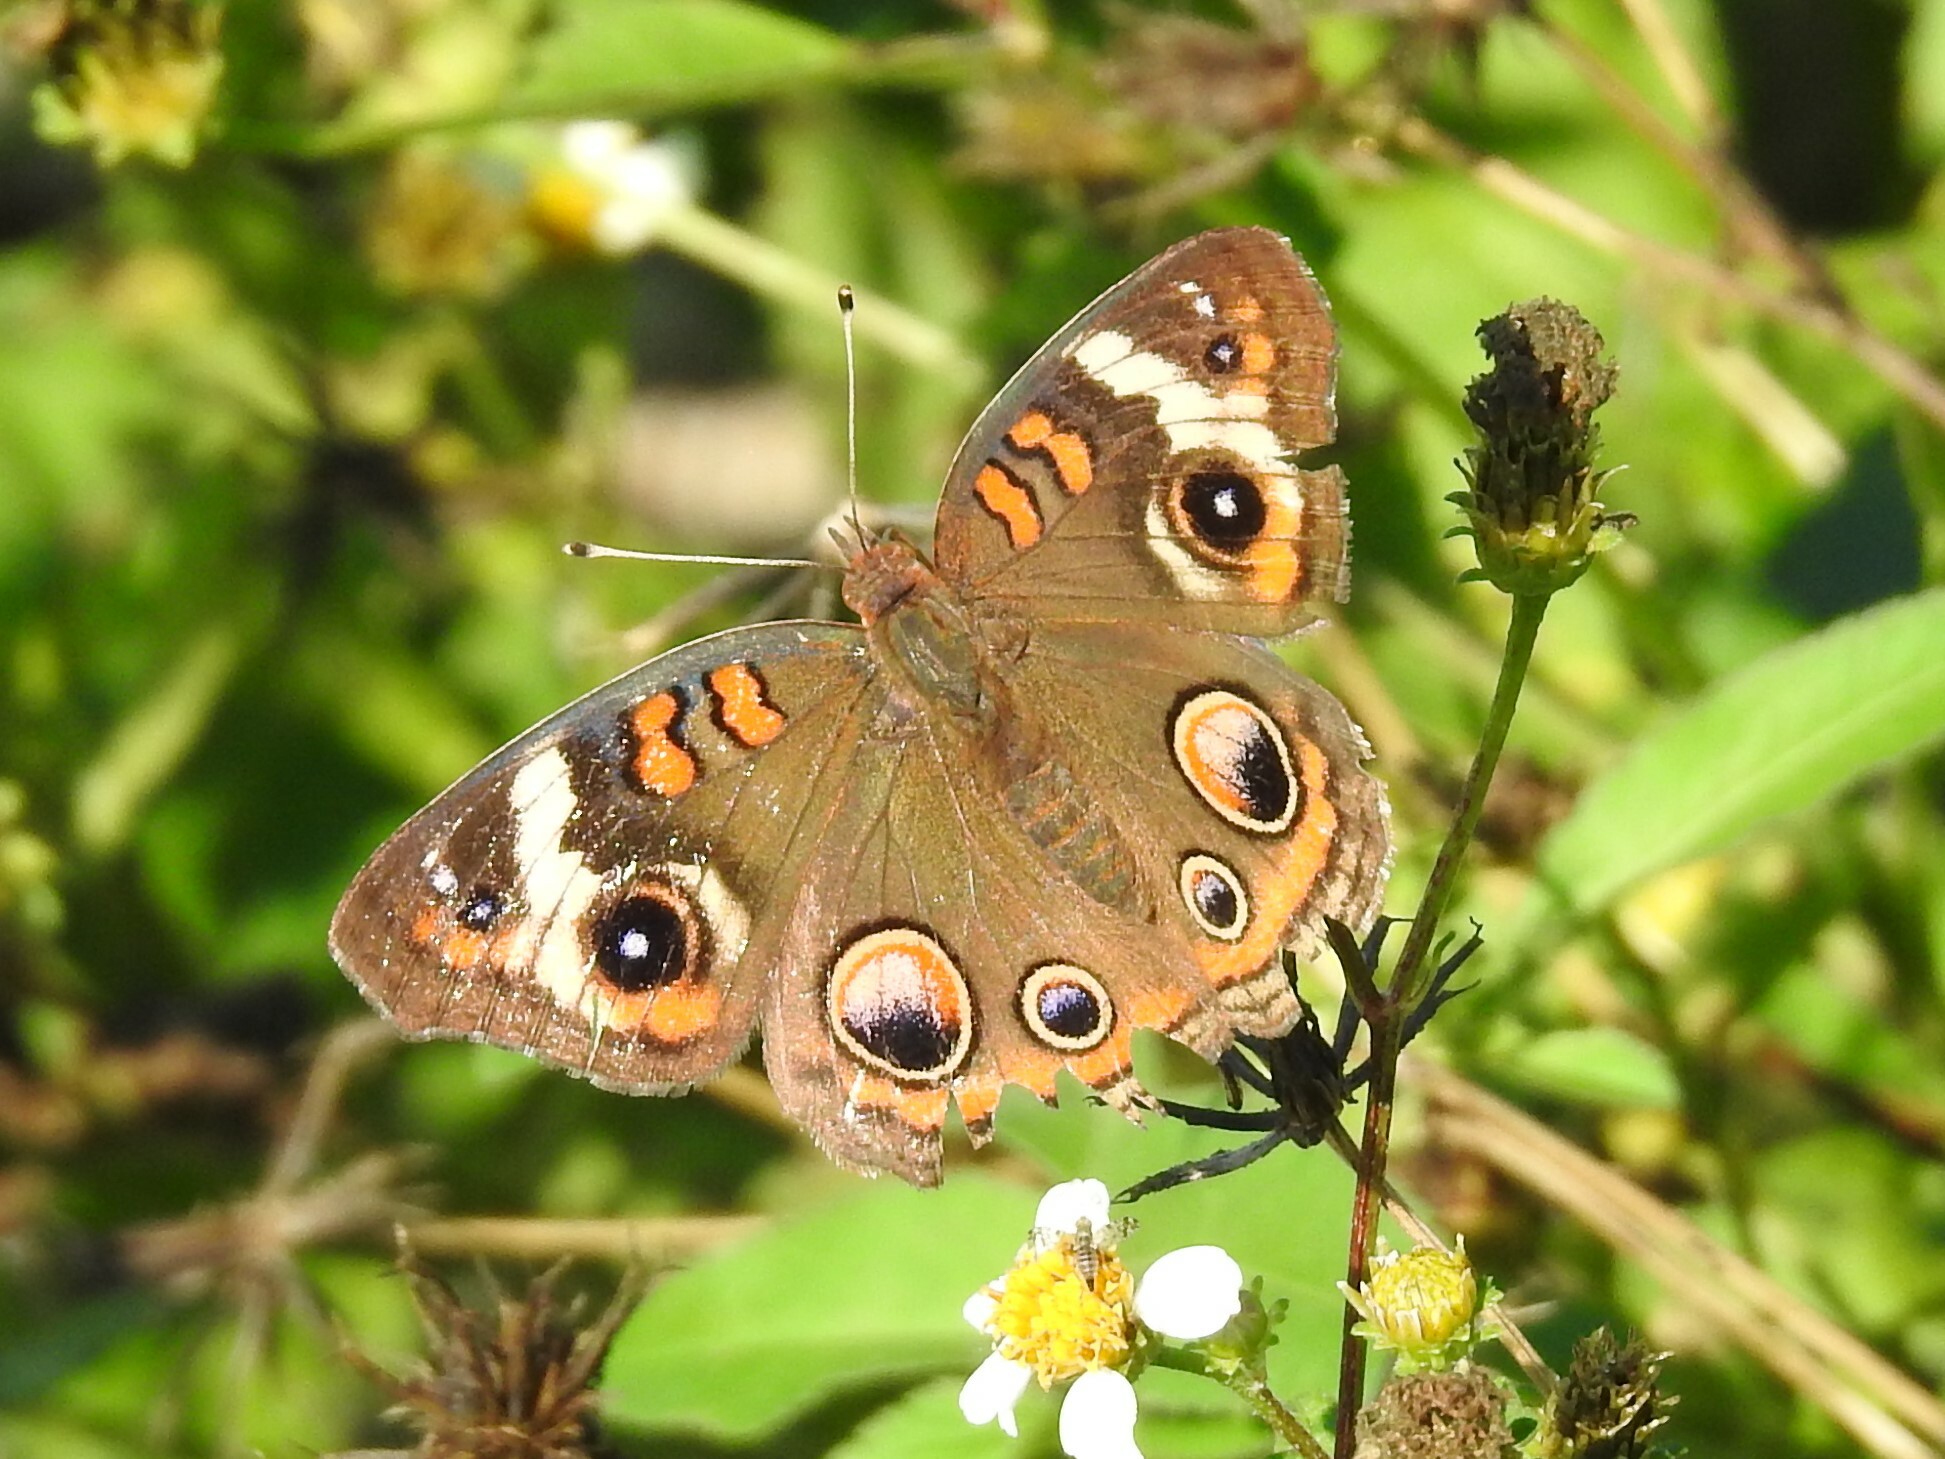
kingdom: Animalia
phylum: Arthropoda
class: Insecta
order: Lepidoptera
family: Nymphalidae
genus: Junonia
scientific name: Junonia coenia
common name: Common buckeye
